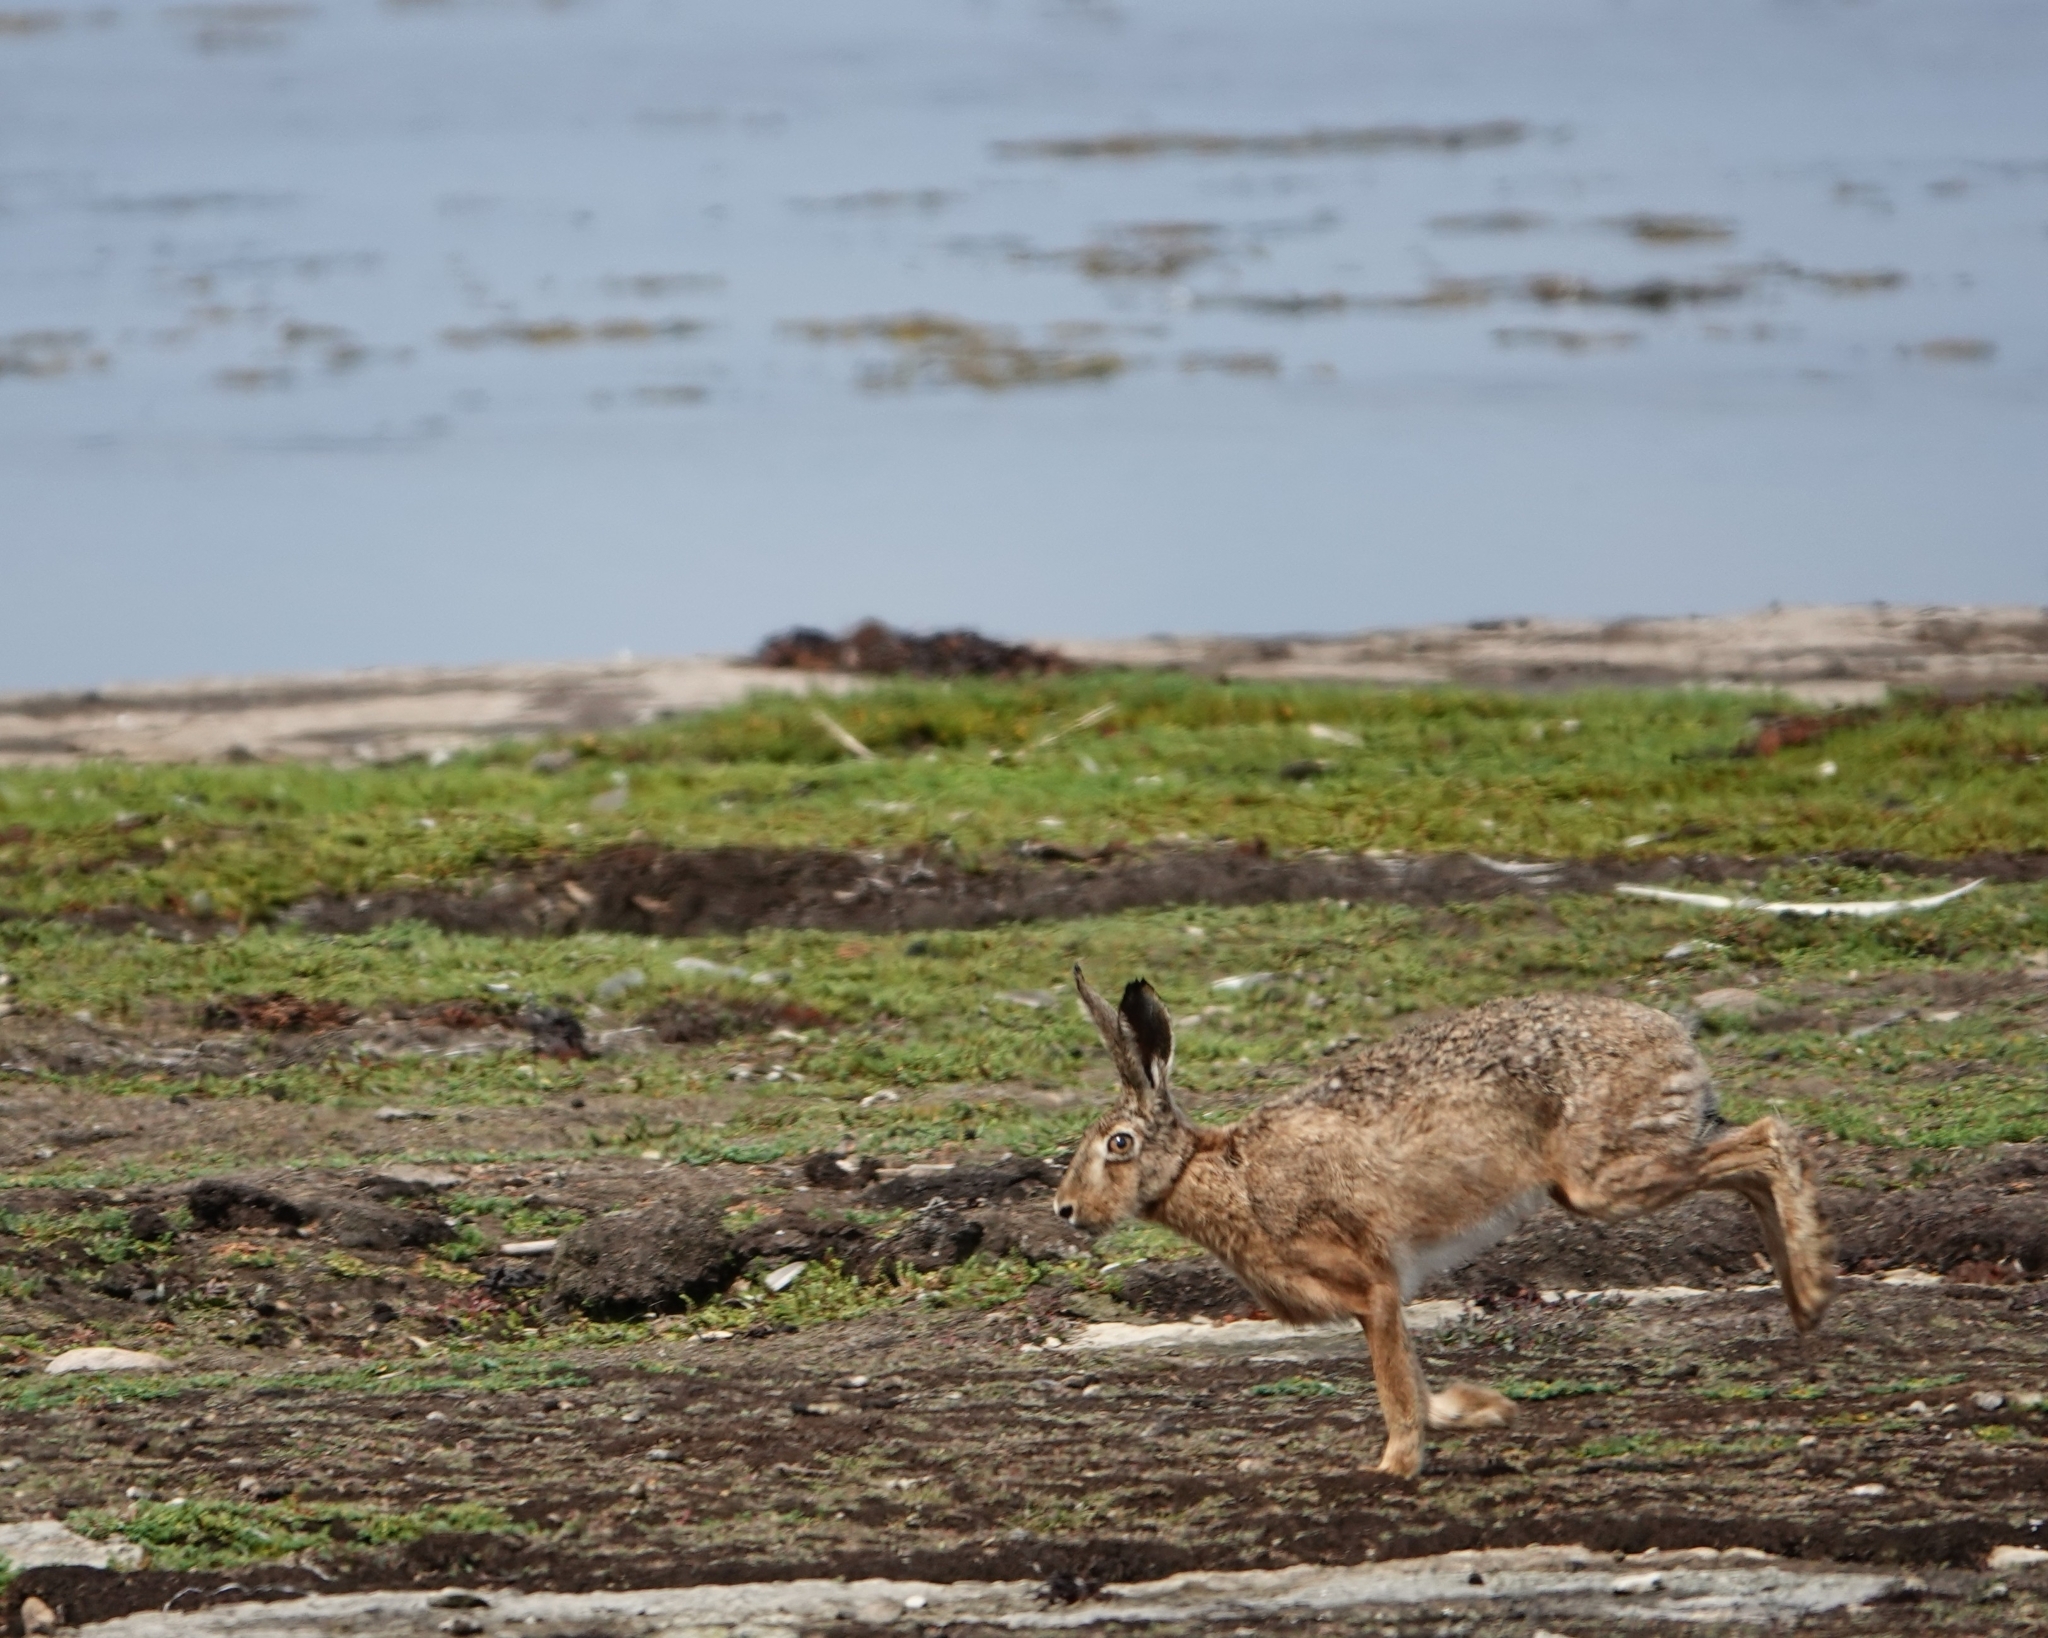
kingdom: Animalia
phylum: Chordata
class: Mammalia
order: Lagomorpha
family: Leporidae
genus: Lepus
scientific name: Lepus europaeus
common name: European hare
